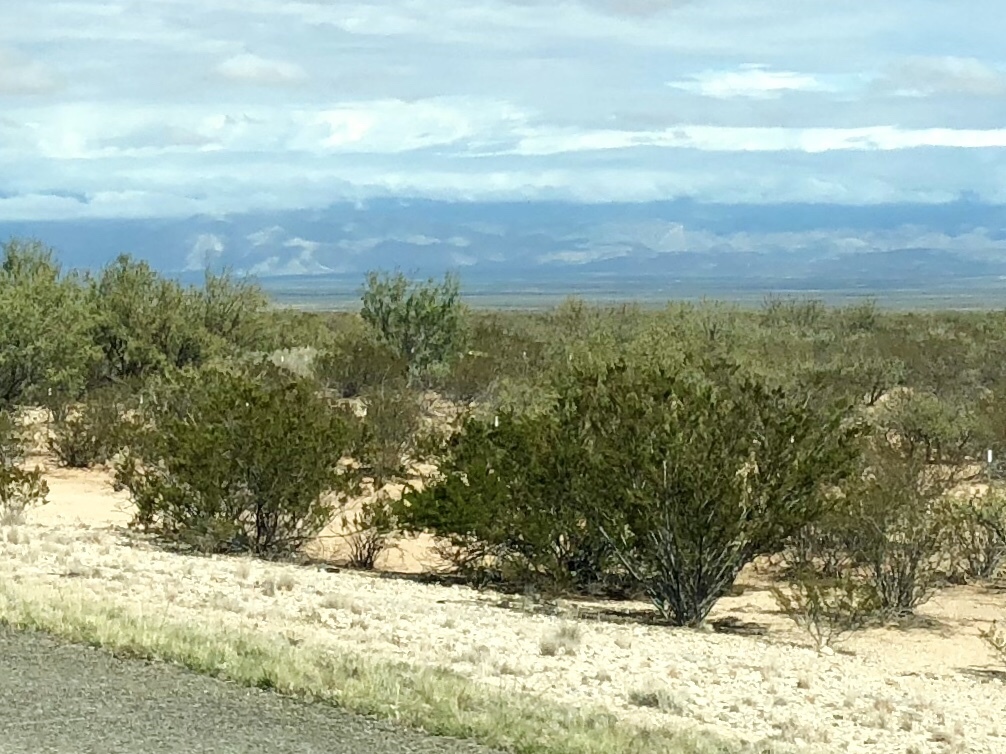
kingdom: Plantae
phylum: Tracheophyta
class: Magnoliopsida
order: Zygophyllales
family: Zygophyllaceae
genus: Larrea
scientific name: Larrea tridentata
